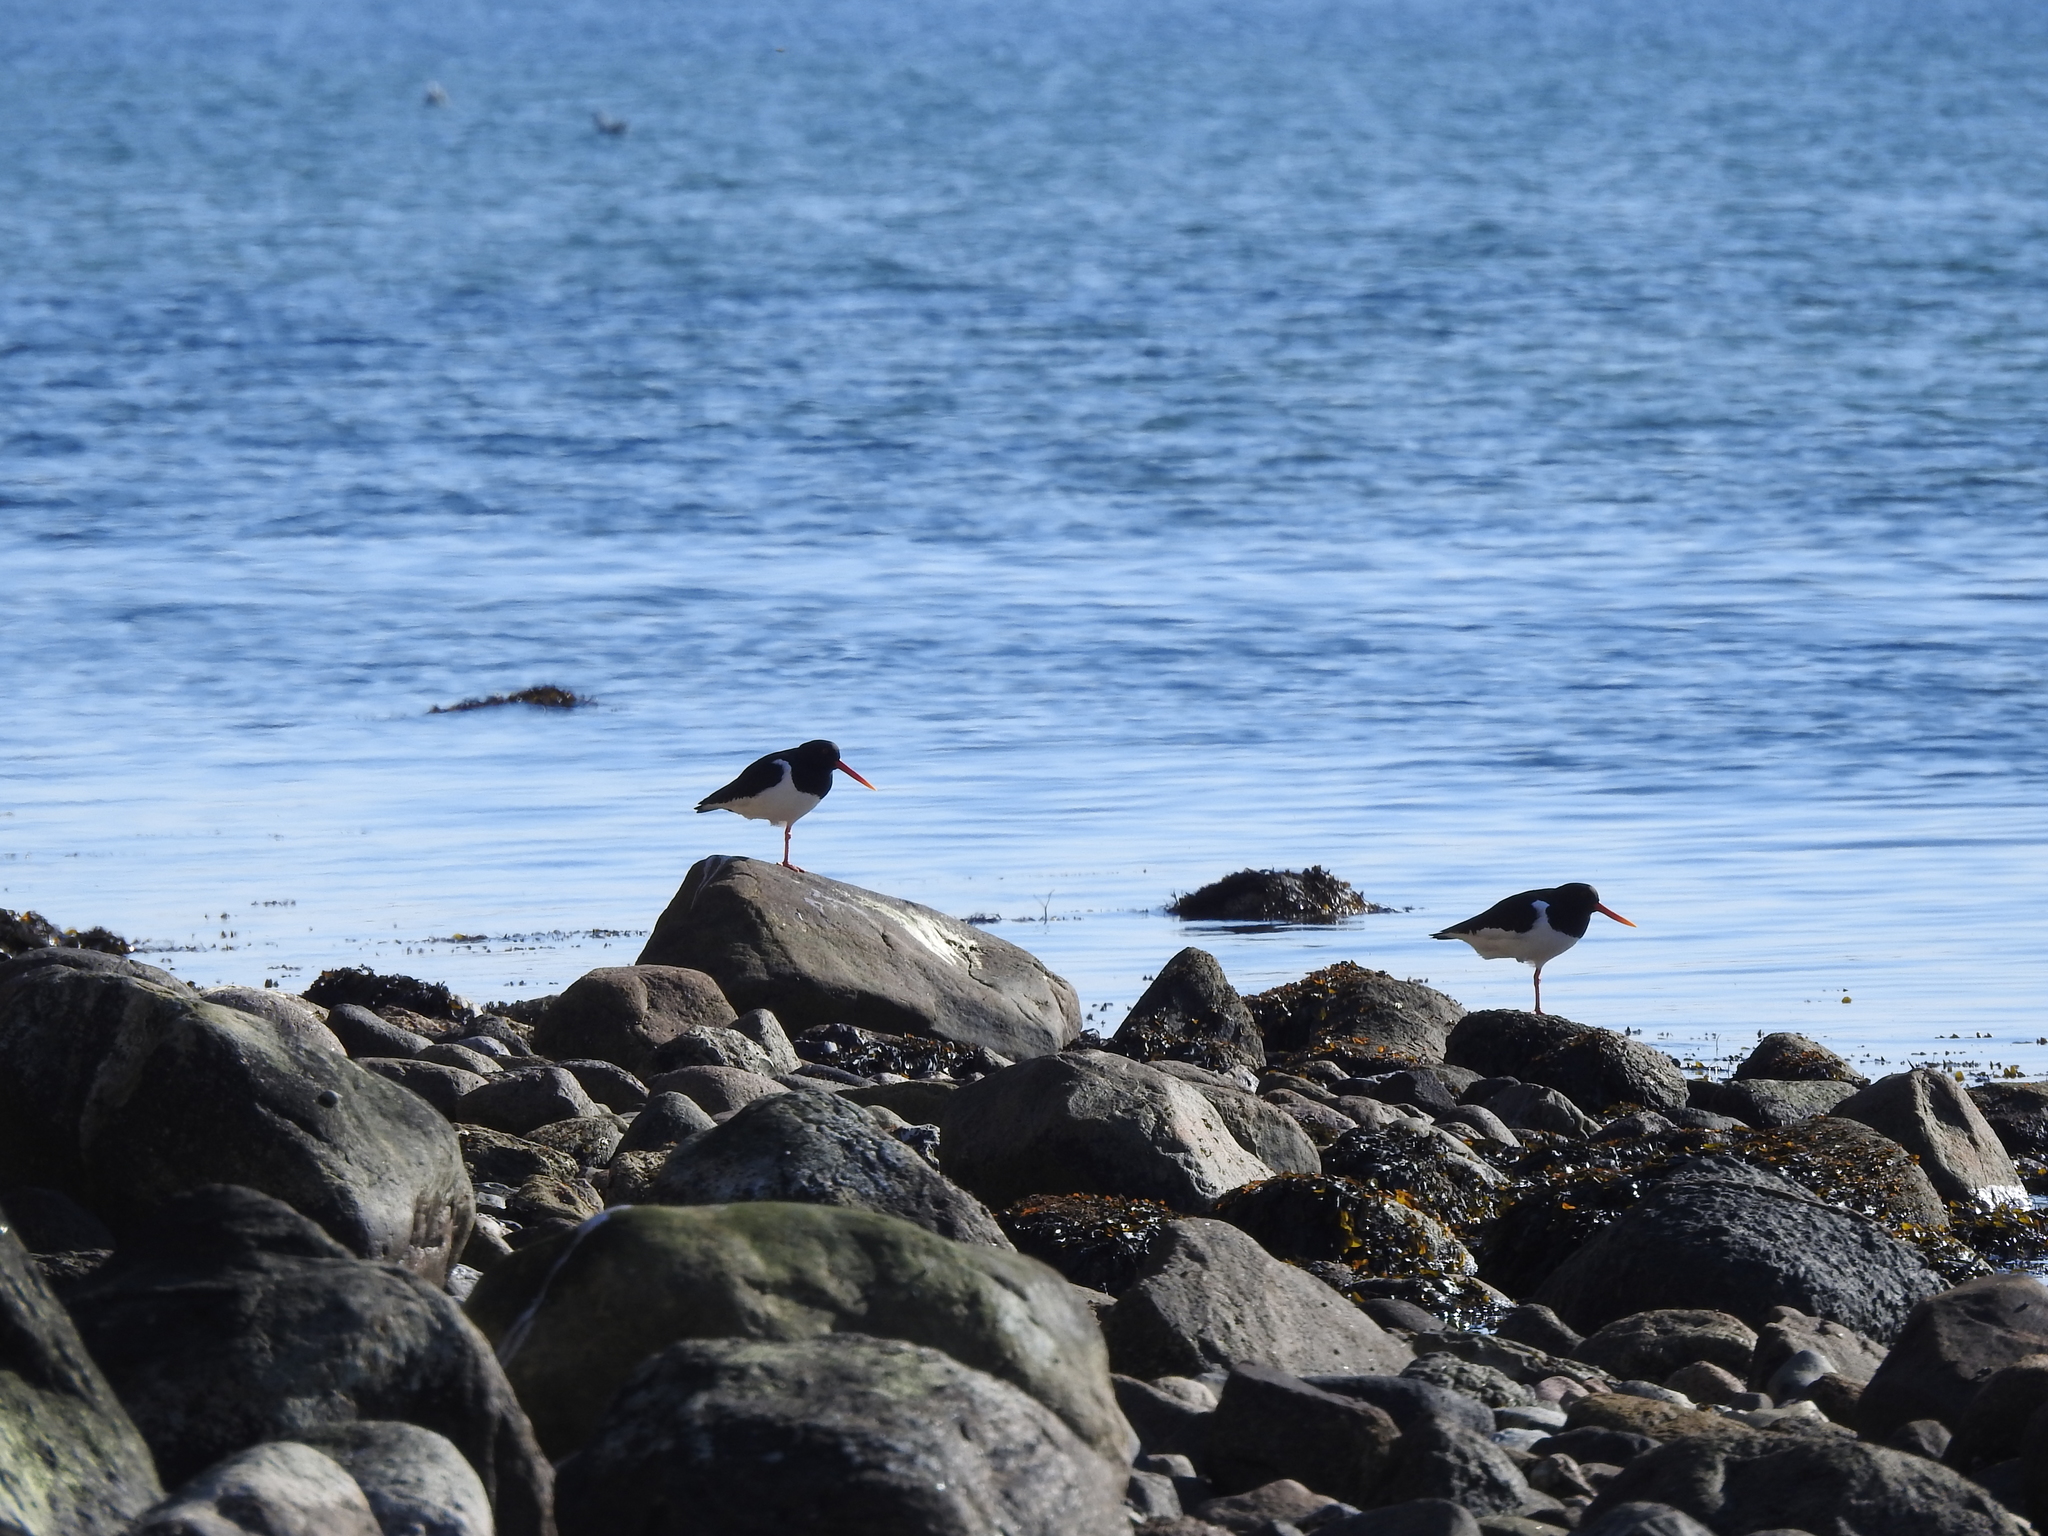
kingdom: Animalia
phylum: Chordata
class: Aves
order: Charadriiformes
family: Haematopodidae
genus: Haematopus
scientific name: Haematopus ostralegus
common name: Eurasian oystercatcher
